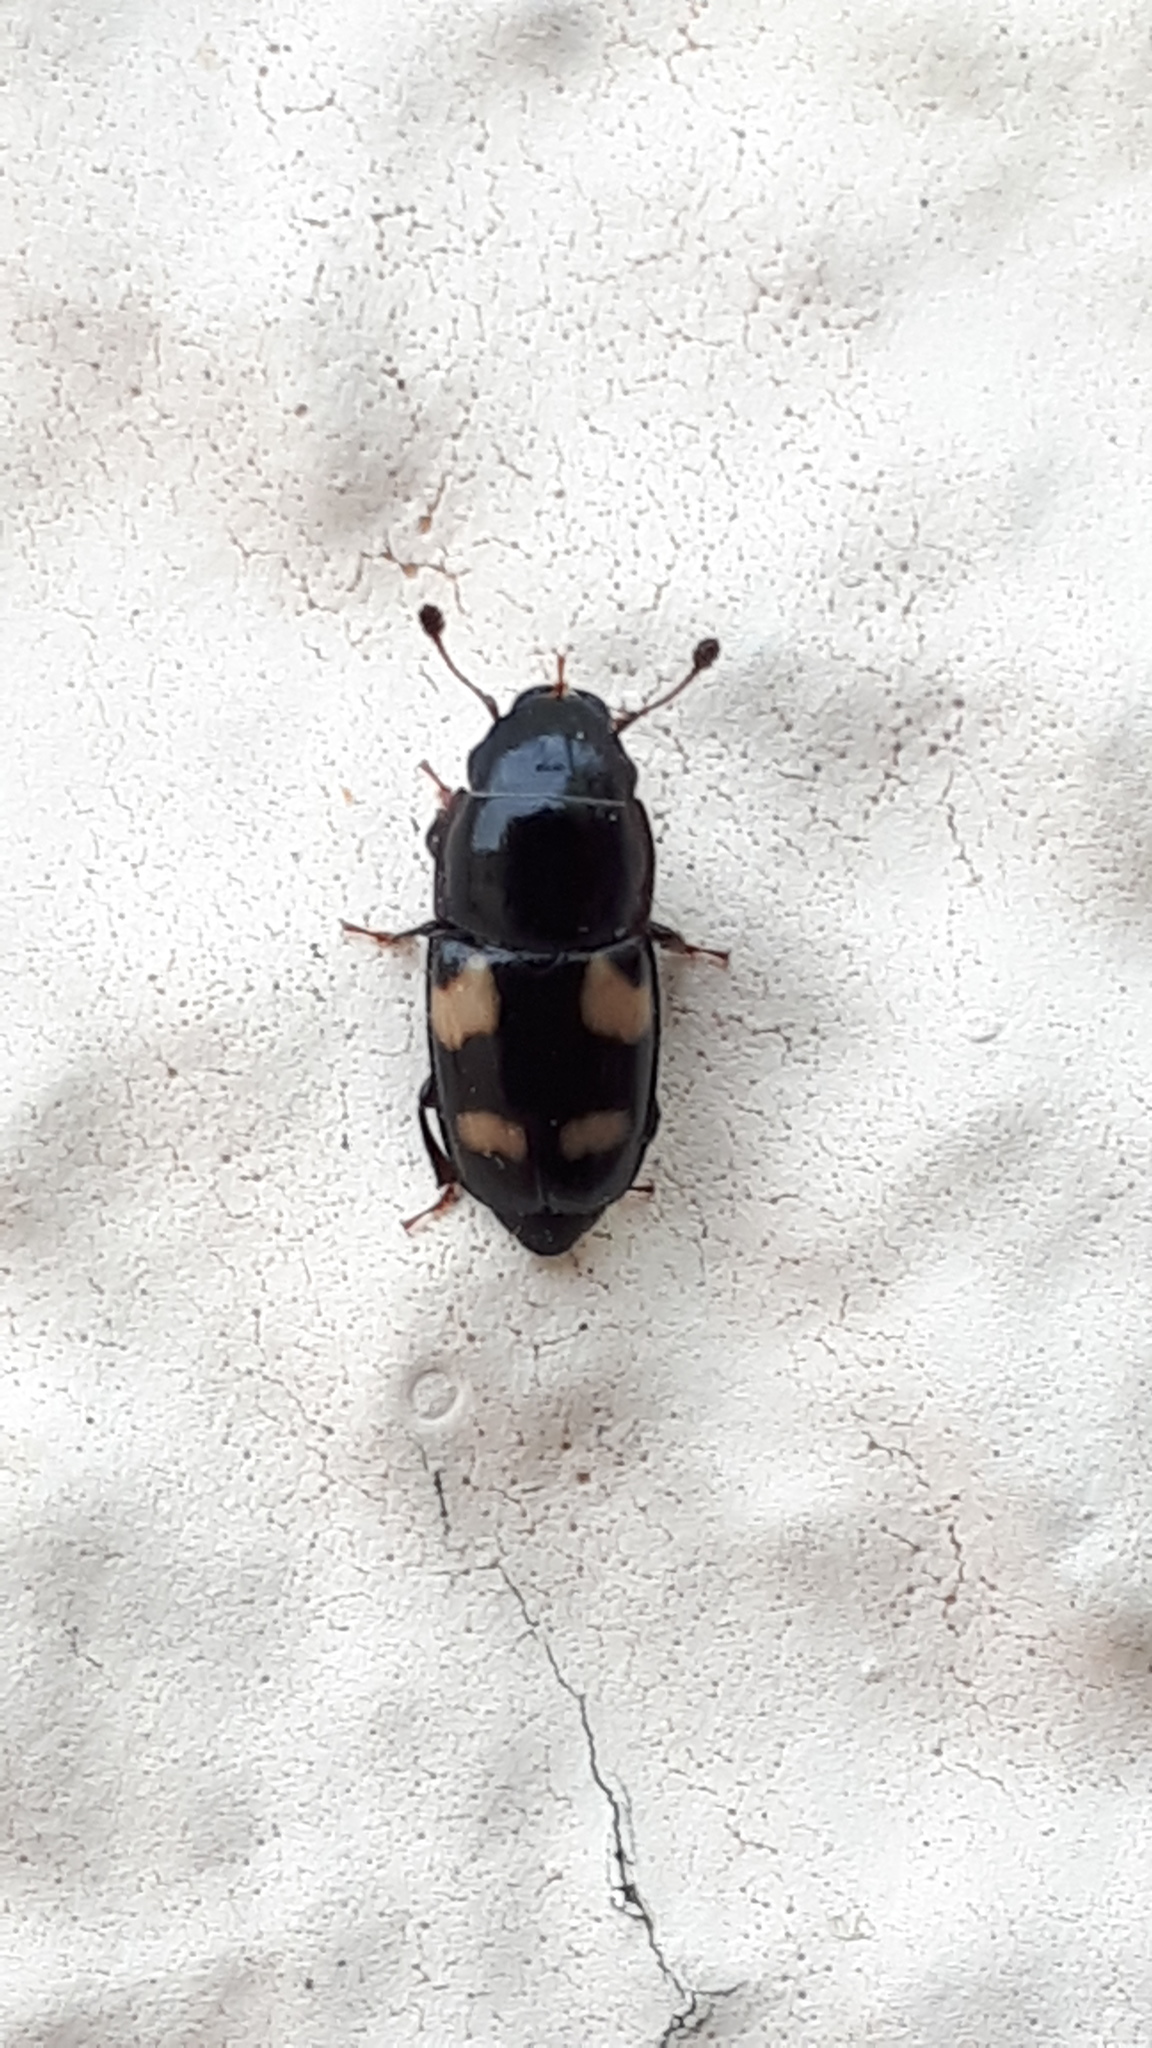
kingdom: Animalia
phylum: Arthropoda
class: Insecta
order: Coleoptera
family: Nitidulidae
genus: Glischrochilus
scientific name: Glischrochilus quadrisignatus
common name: Picnic beetle
